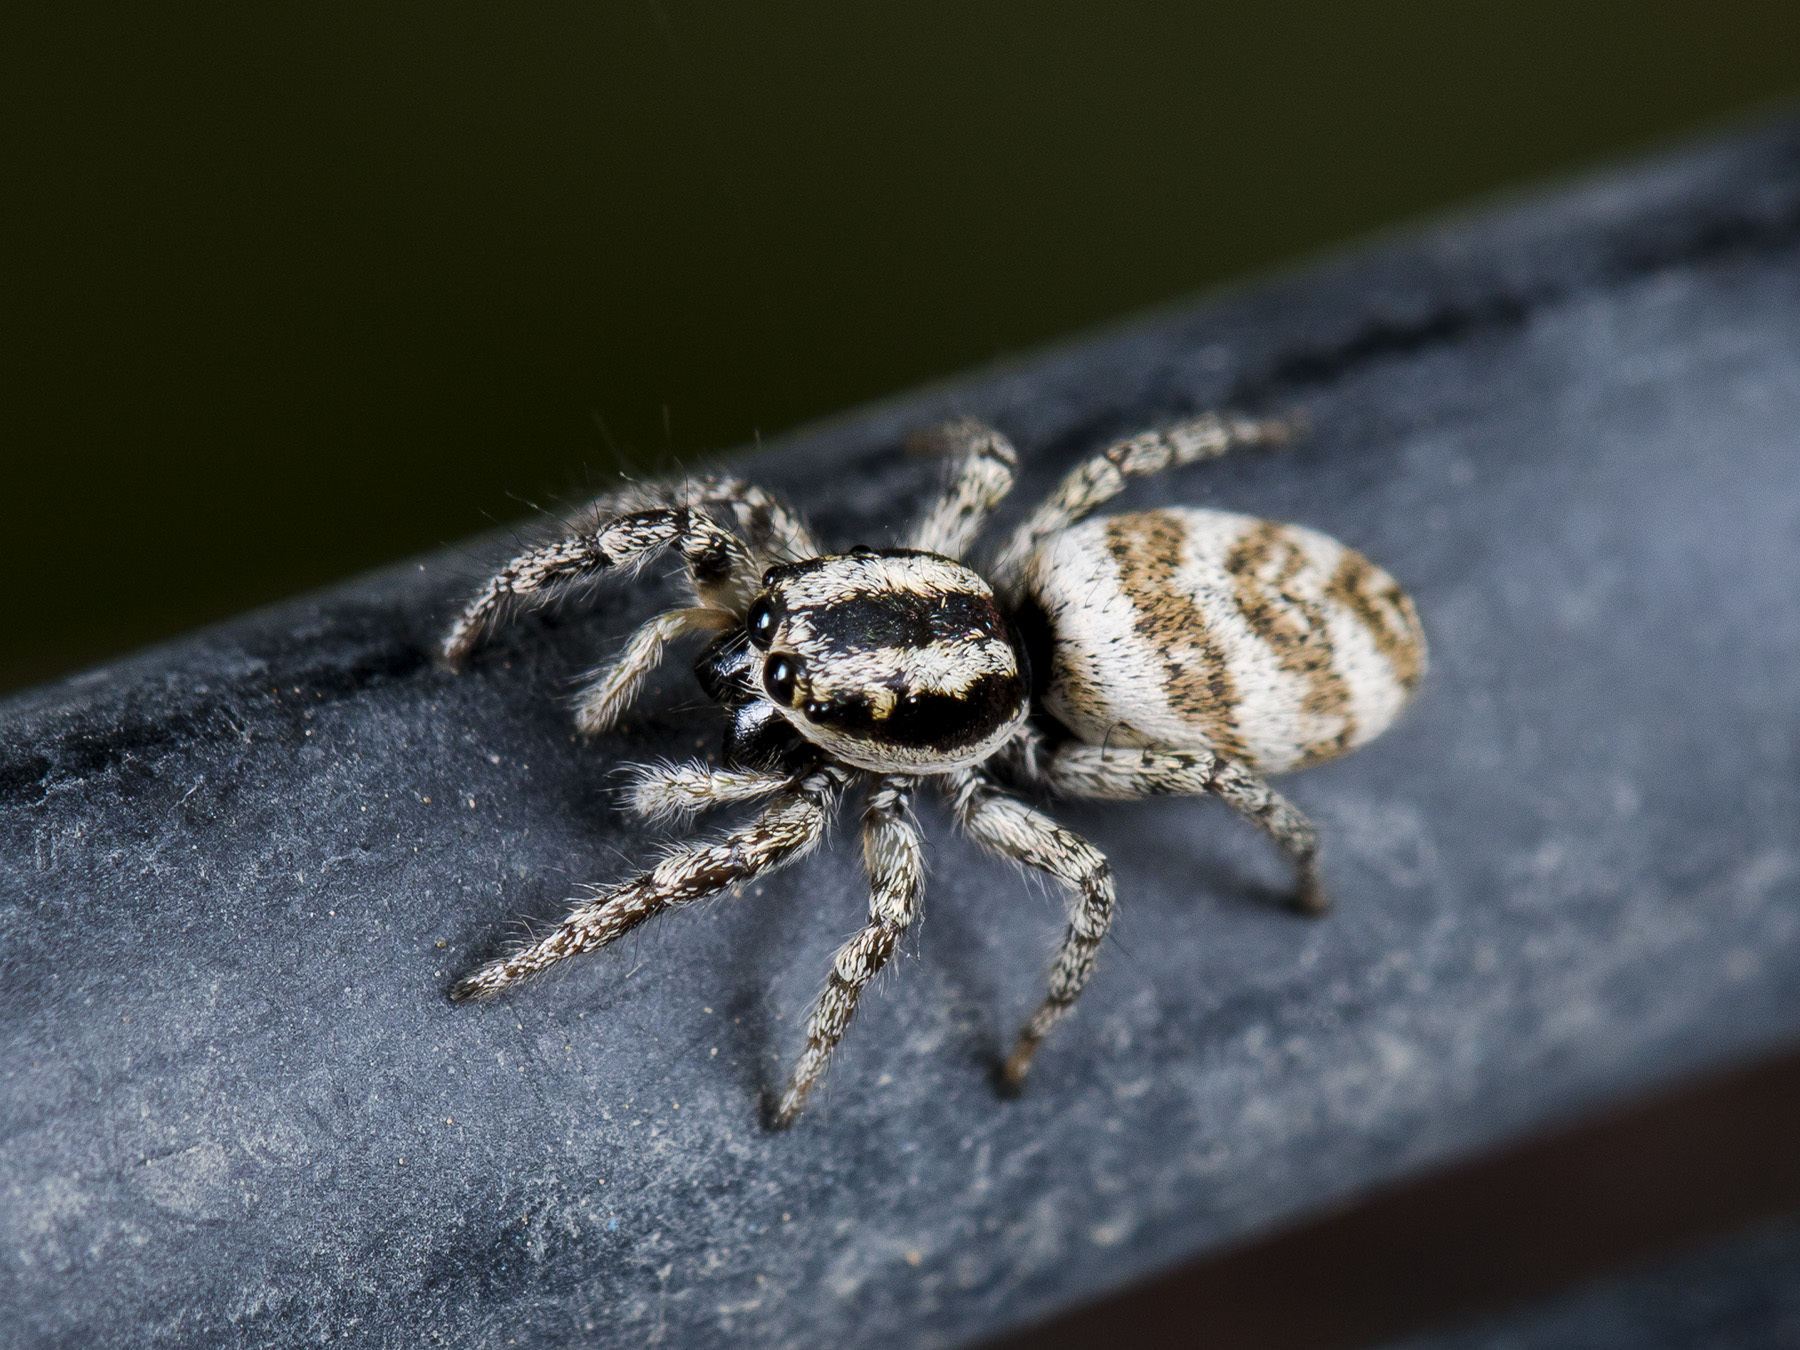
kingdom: Animalia
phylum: Arthropoda
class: Arachnida
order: Araneae
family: Salticidae
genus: Salticus
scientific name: Salticus tricinctus
